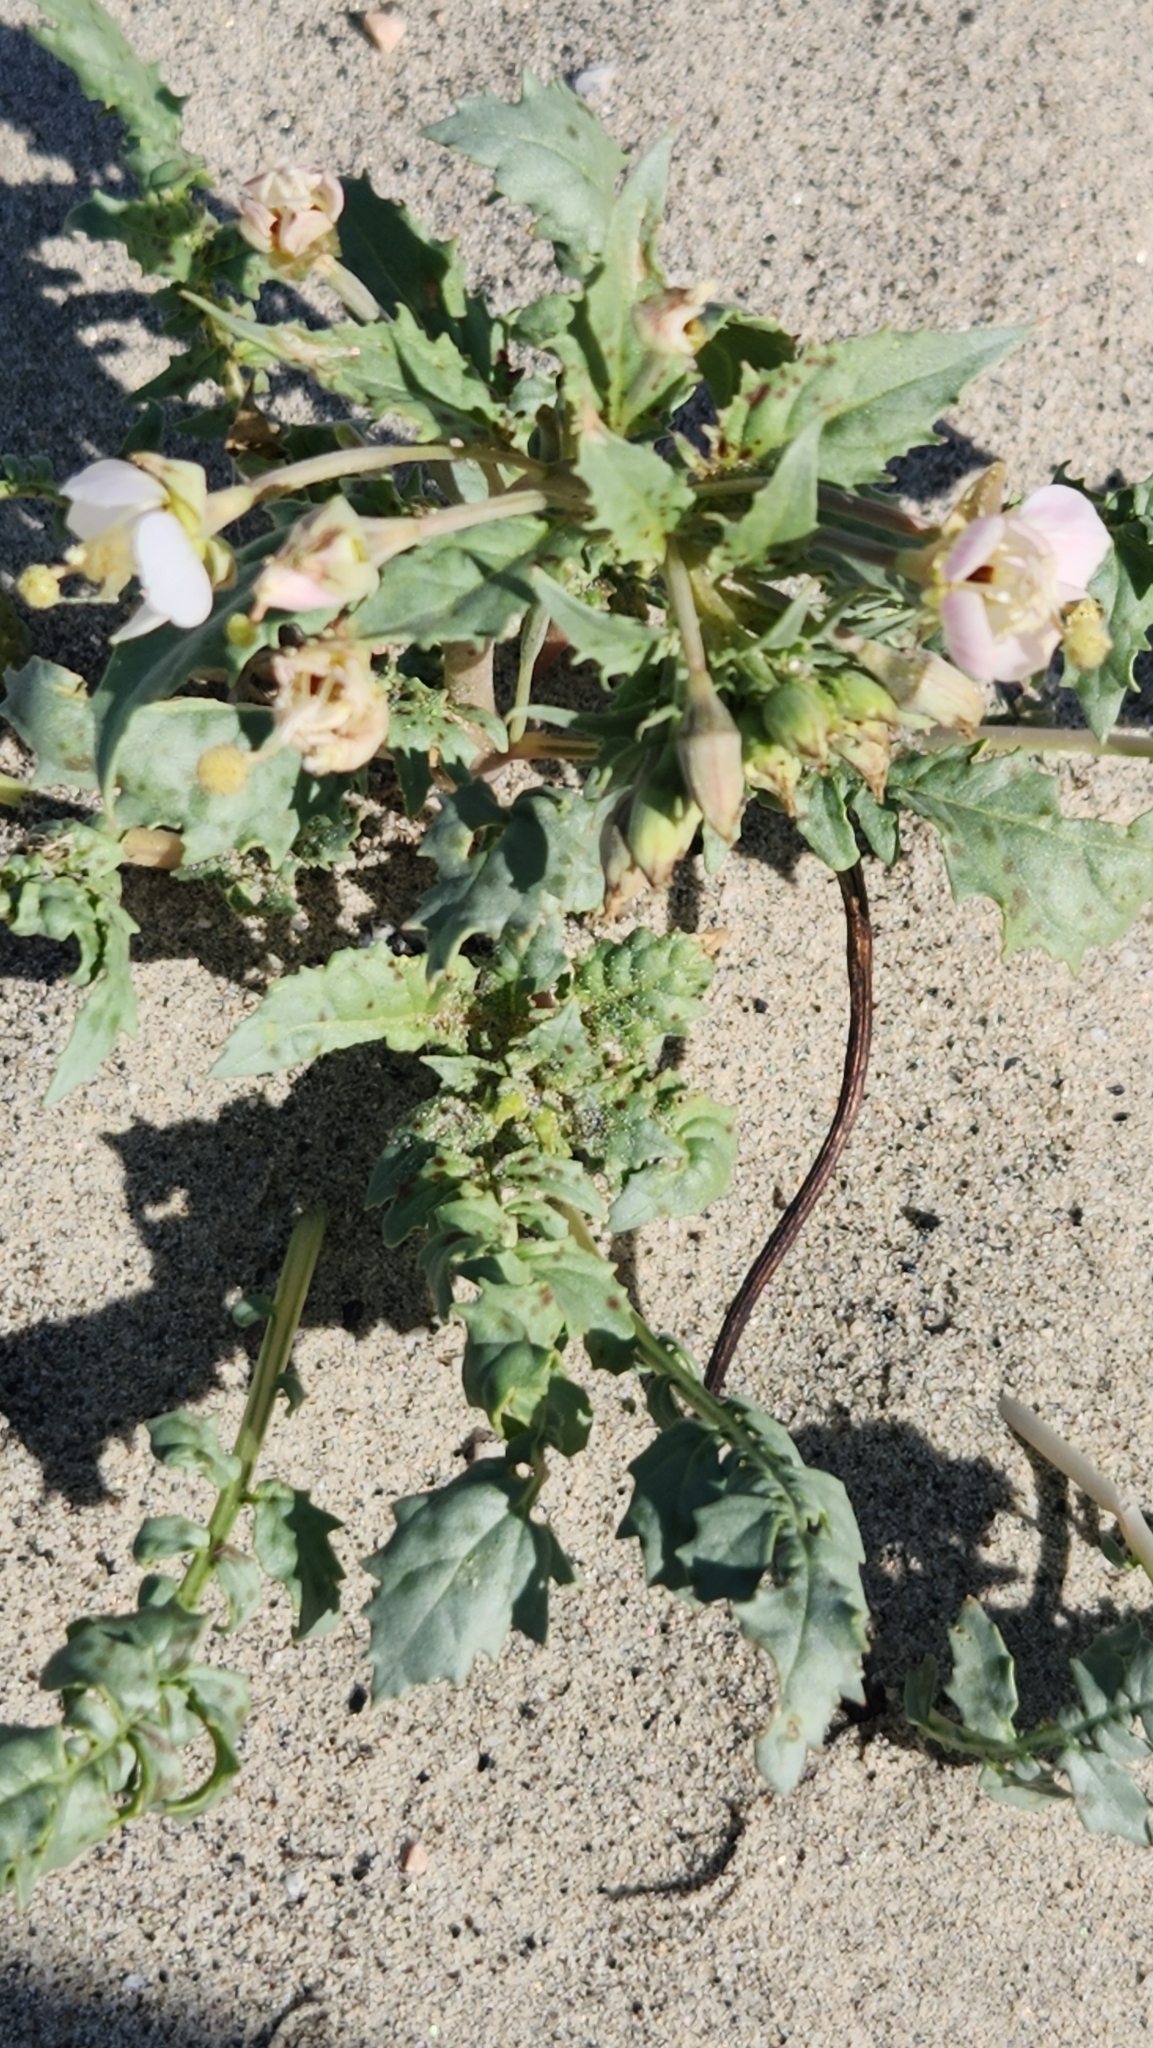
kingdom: Plantae
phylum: Tracheophyta
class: Magnoliopsida
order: Myrtales
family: Onagraceae
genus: Chylismia
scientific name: Chylismia claviformis
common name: Browneyes
